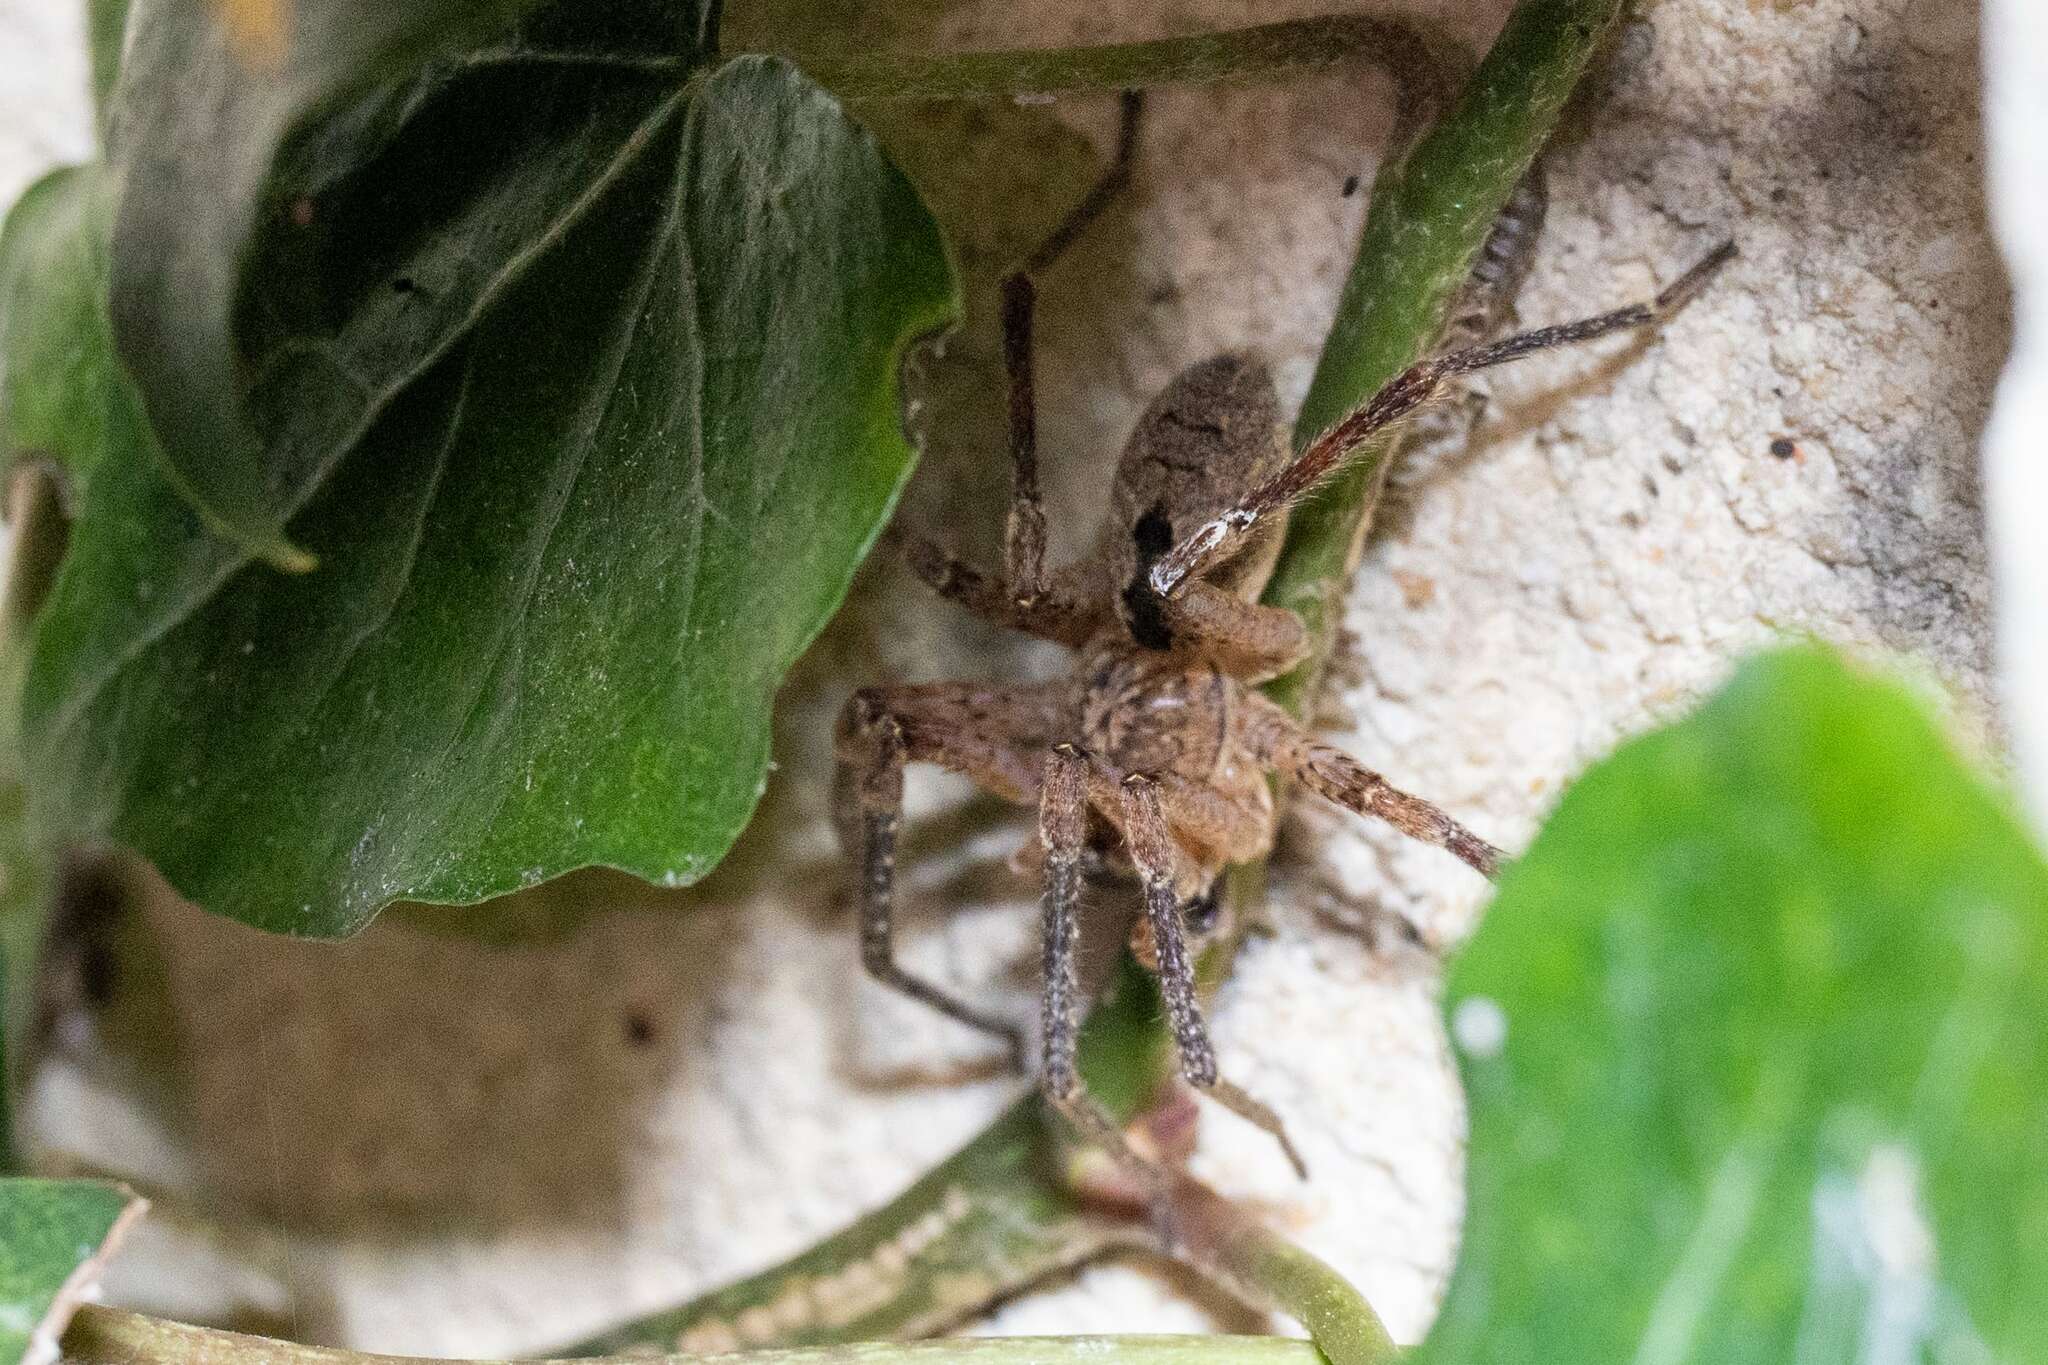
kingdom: Animalia
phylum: Arthropoda
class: Arachnida
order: Araneae
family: Zoropsidae
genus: Zoropsis
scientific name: Zoropsis spinimana
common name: Zoropsid spider
